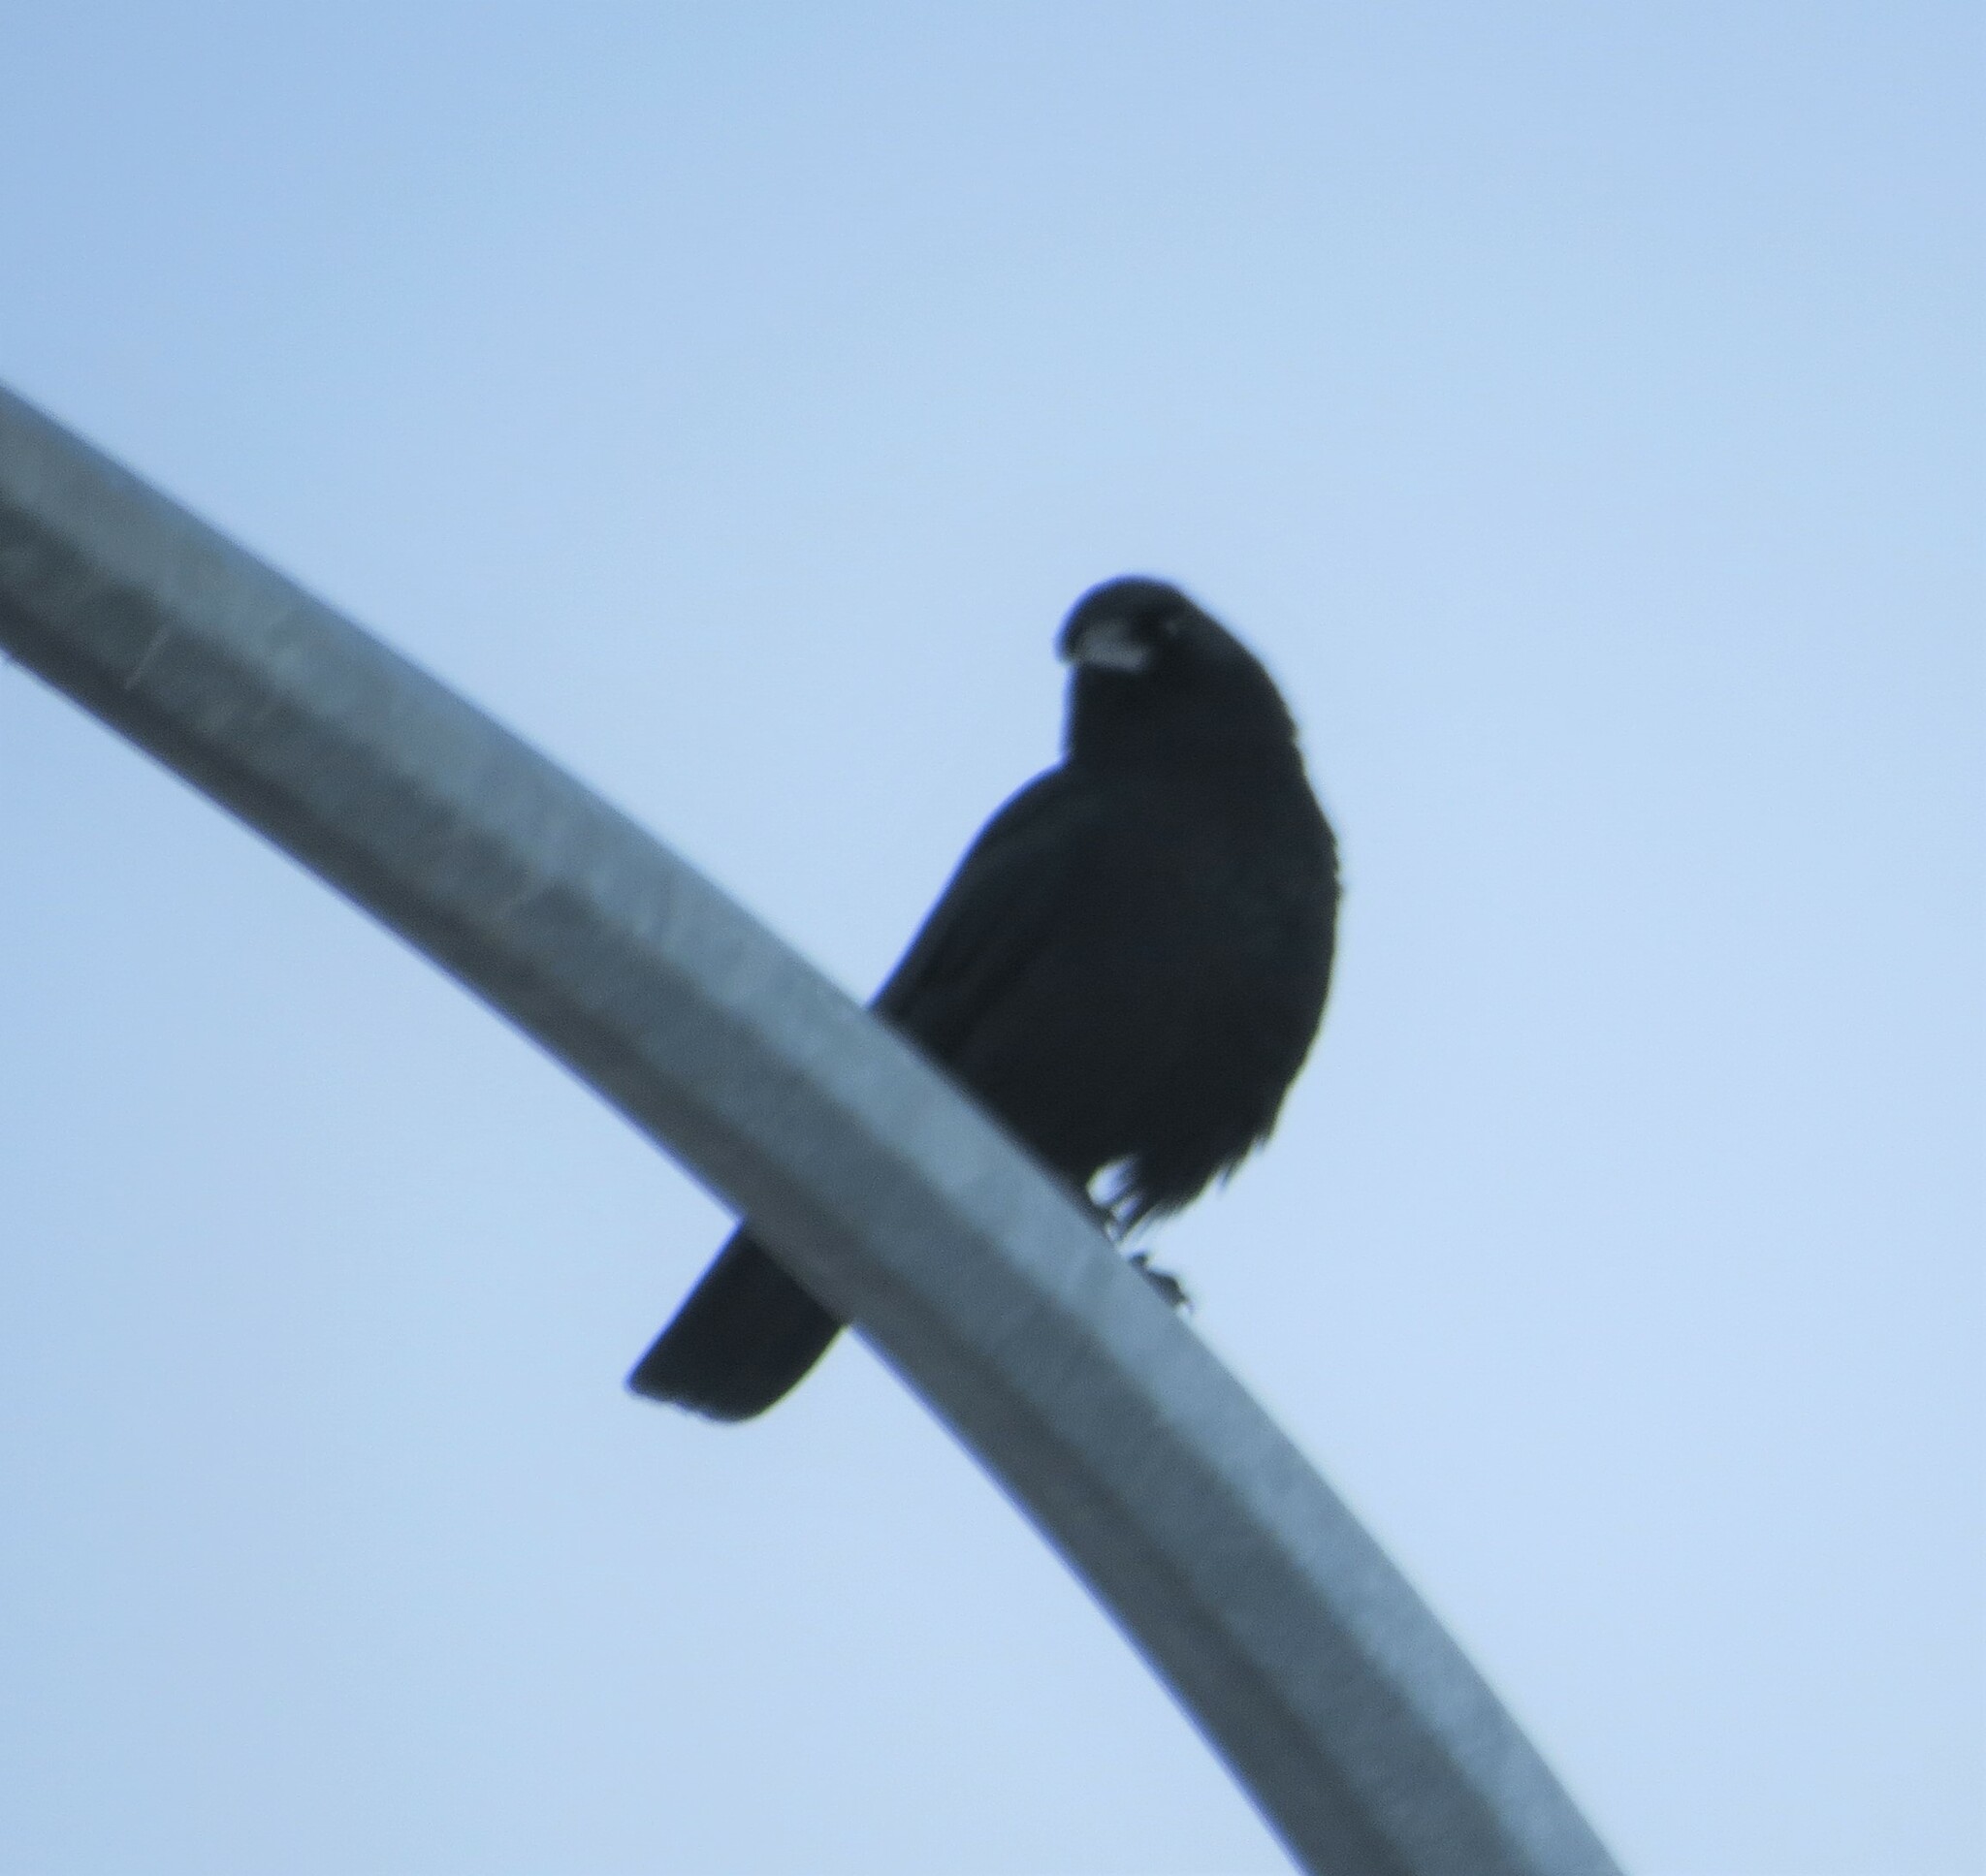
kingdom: Animalia
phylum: Chordata
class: Aves
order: Passeriformes
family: Corvidae
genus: Corvus
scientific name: Corvus brachyrhynchos
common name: American crow
